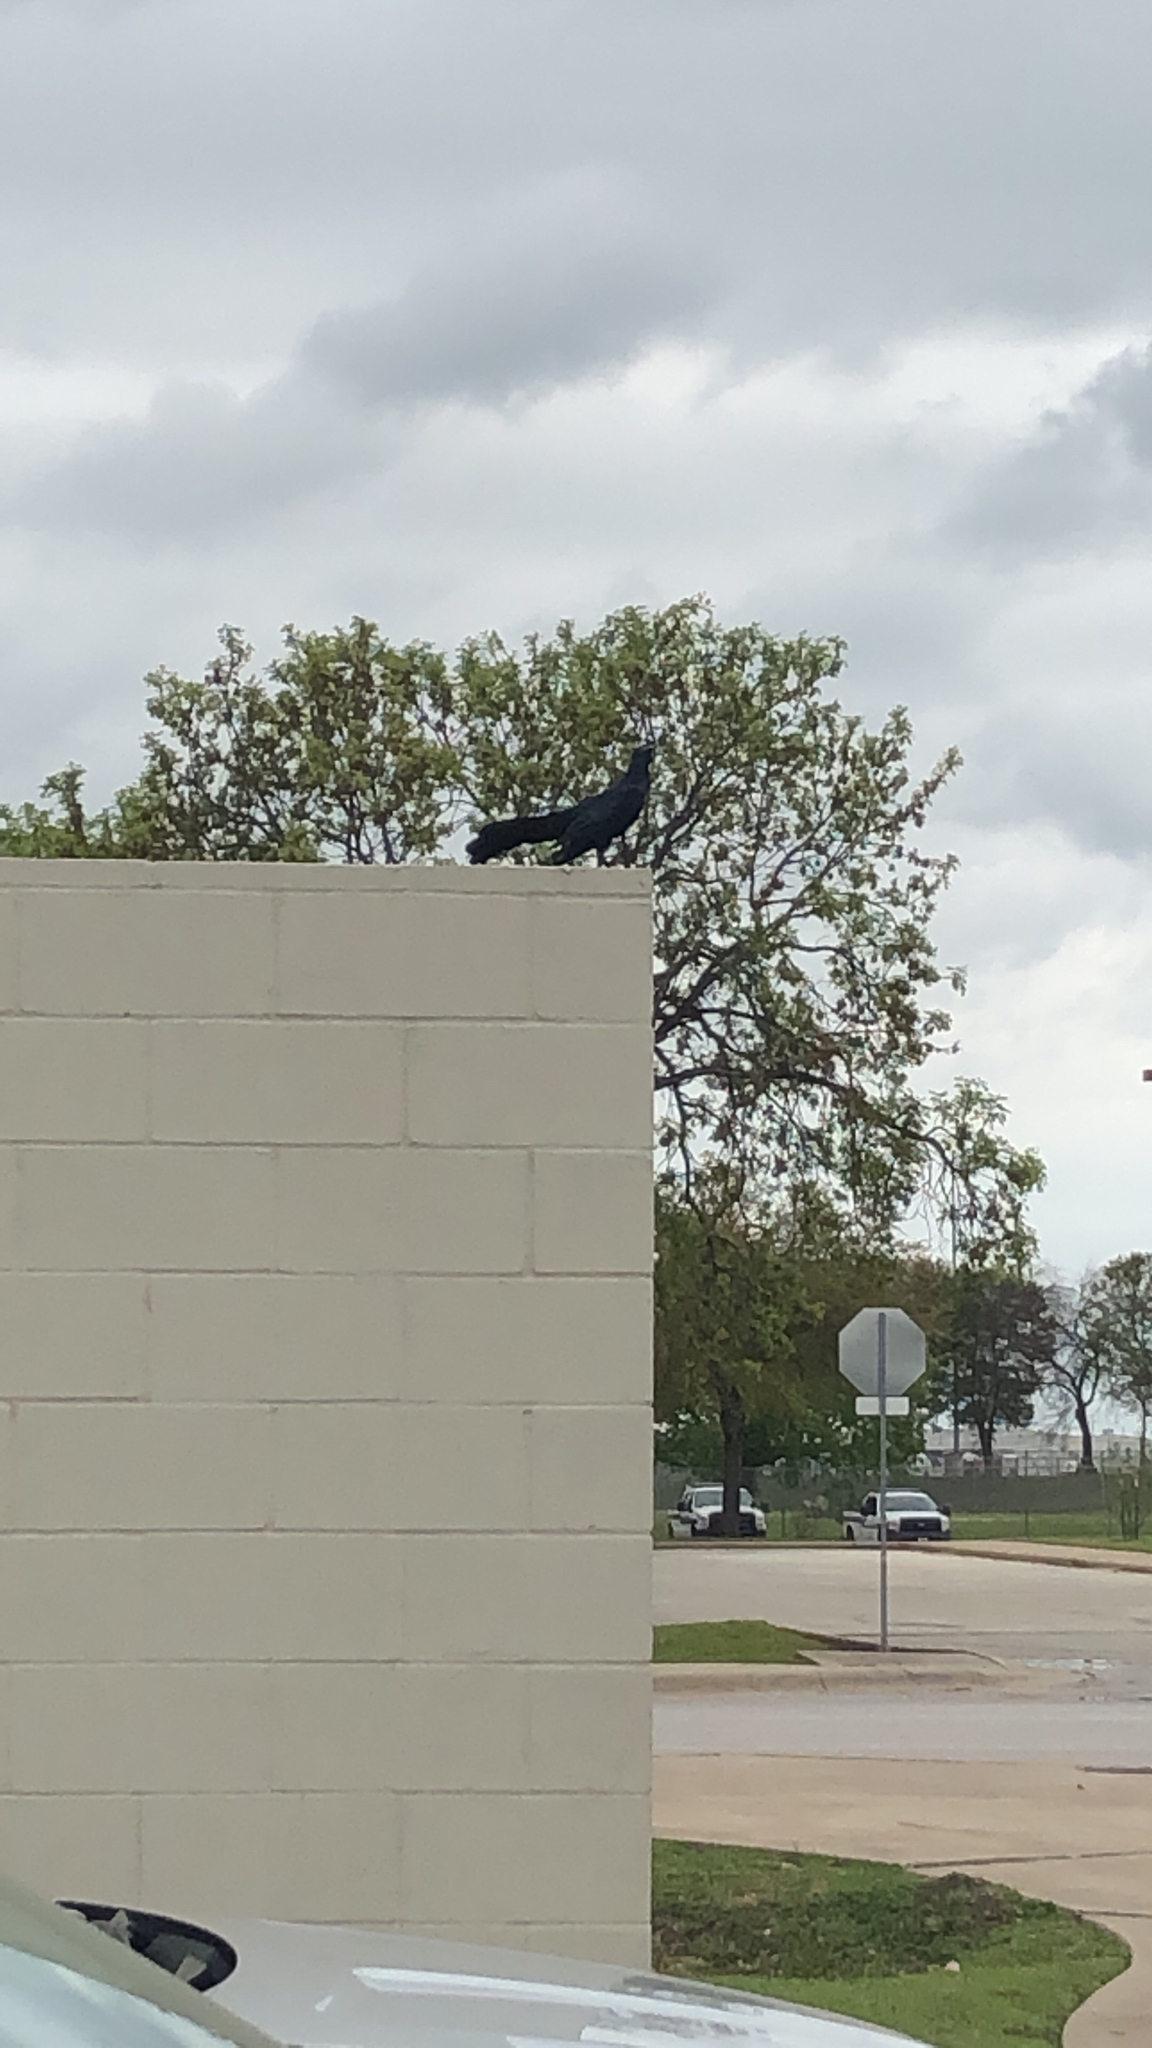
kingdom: Animalia
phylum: Chordata
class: Aves
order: Passeriformes
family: Icteridae
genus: Quiscalus
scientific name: Quiscalus mexicanus
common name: Great-tailed grackle
